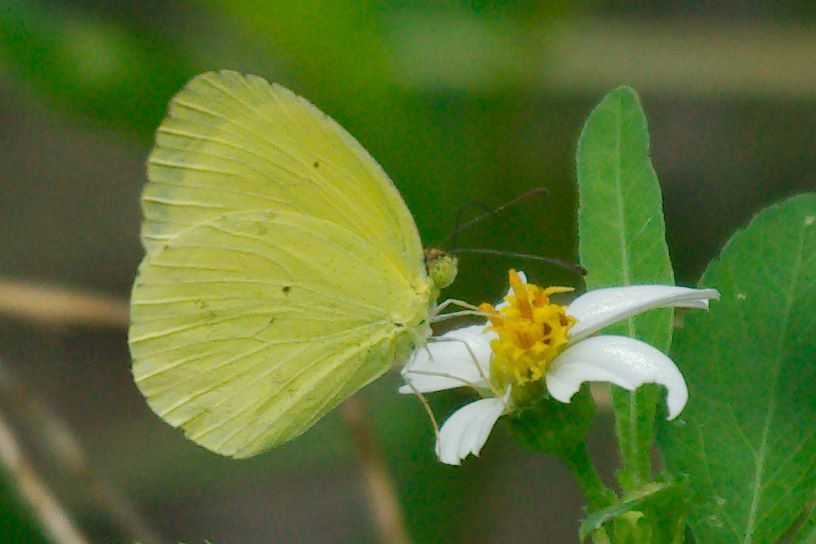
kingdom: Animalia
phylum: Arthropoda
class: Insecta
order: Lepidoptera
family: Pieridae
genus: Pyrisitia
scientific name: Pyrisitia nise
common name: Mimosa yellow
